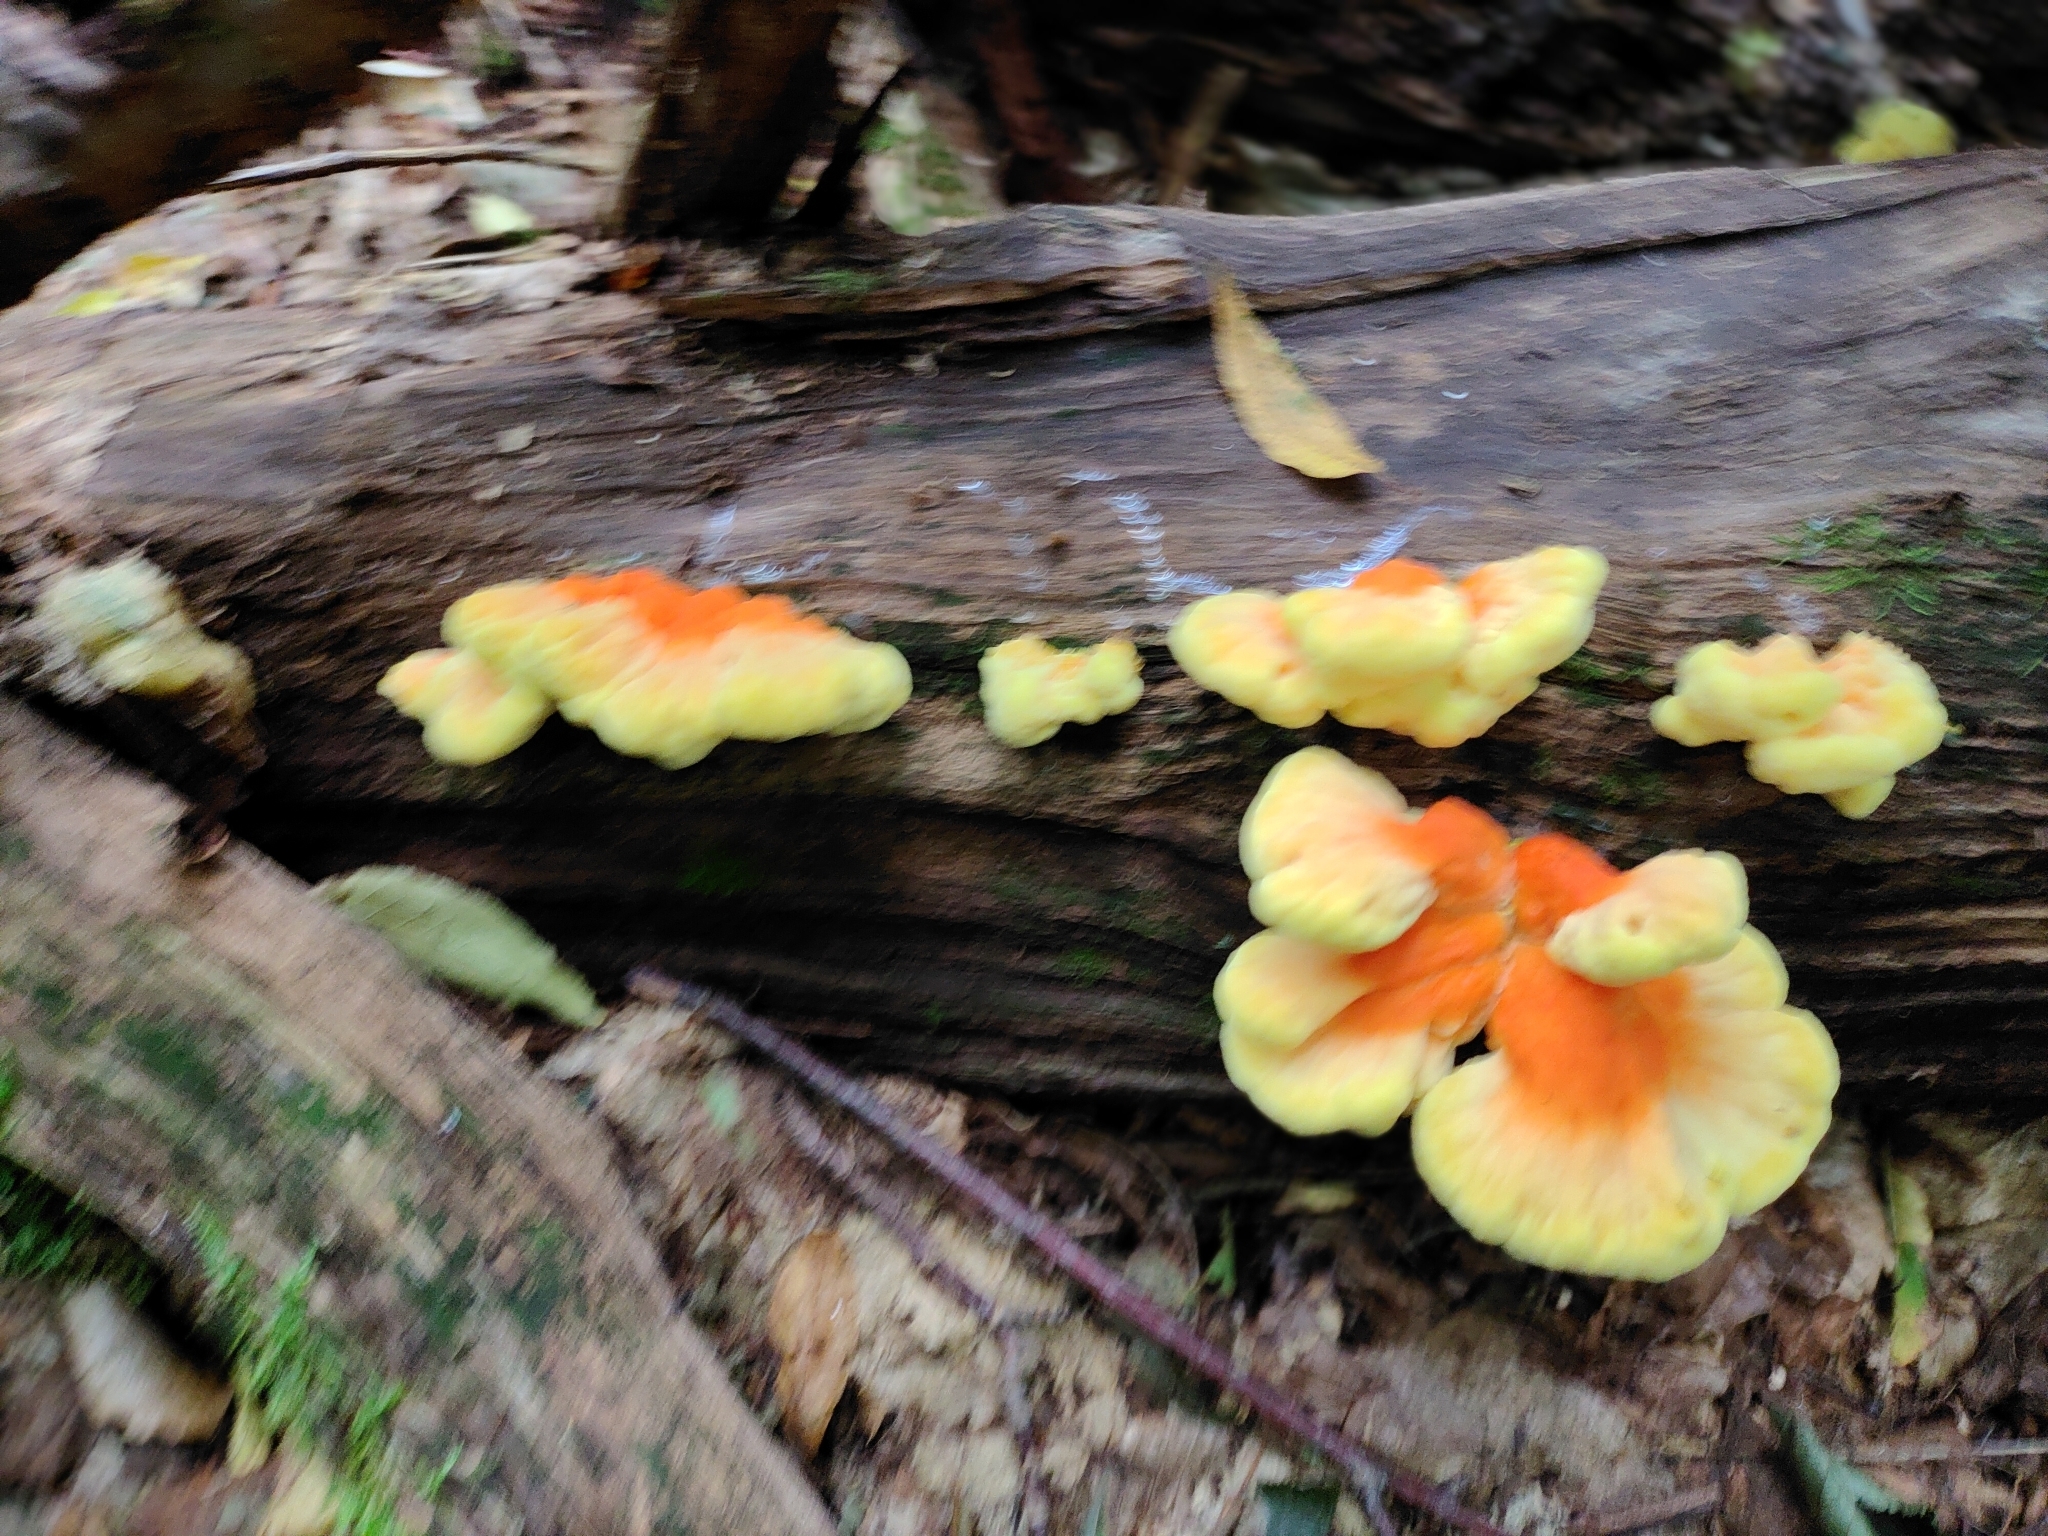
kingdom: Fungi
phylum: Basidiomycota
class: Agaricomycetes
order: Polyporales
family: Laetiporaceae
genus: Laetiporus
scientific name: Laetiporus sulphureus
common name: Chicken of the woods
